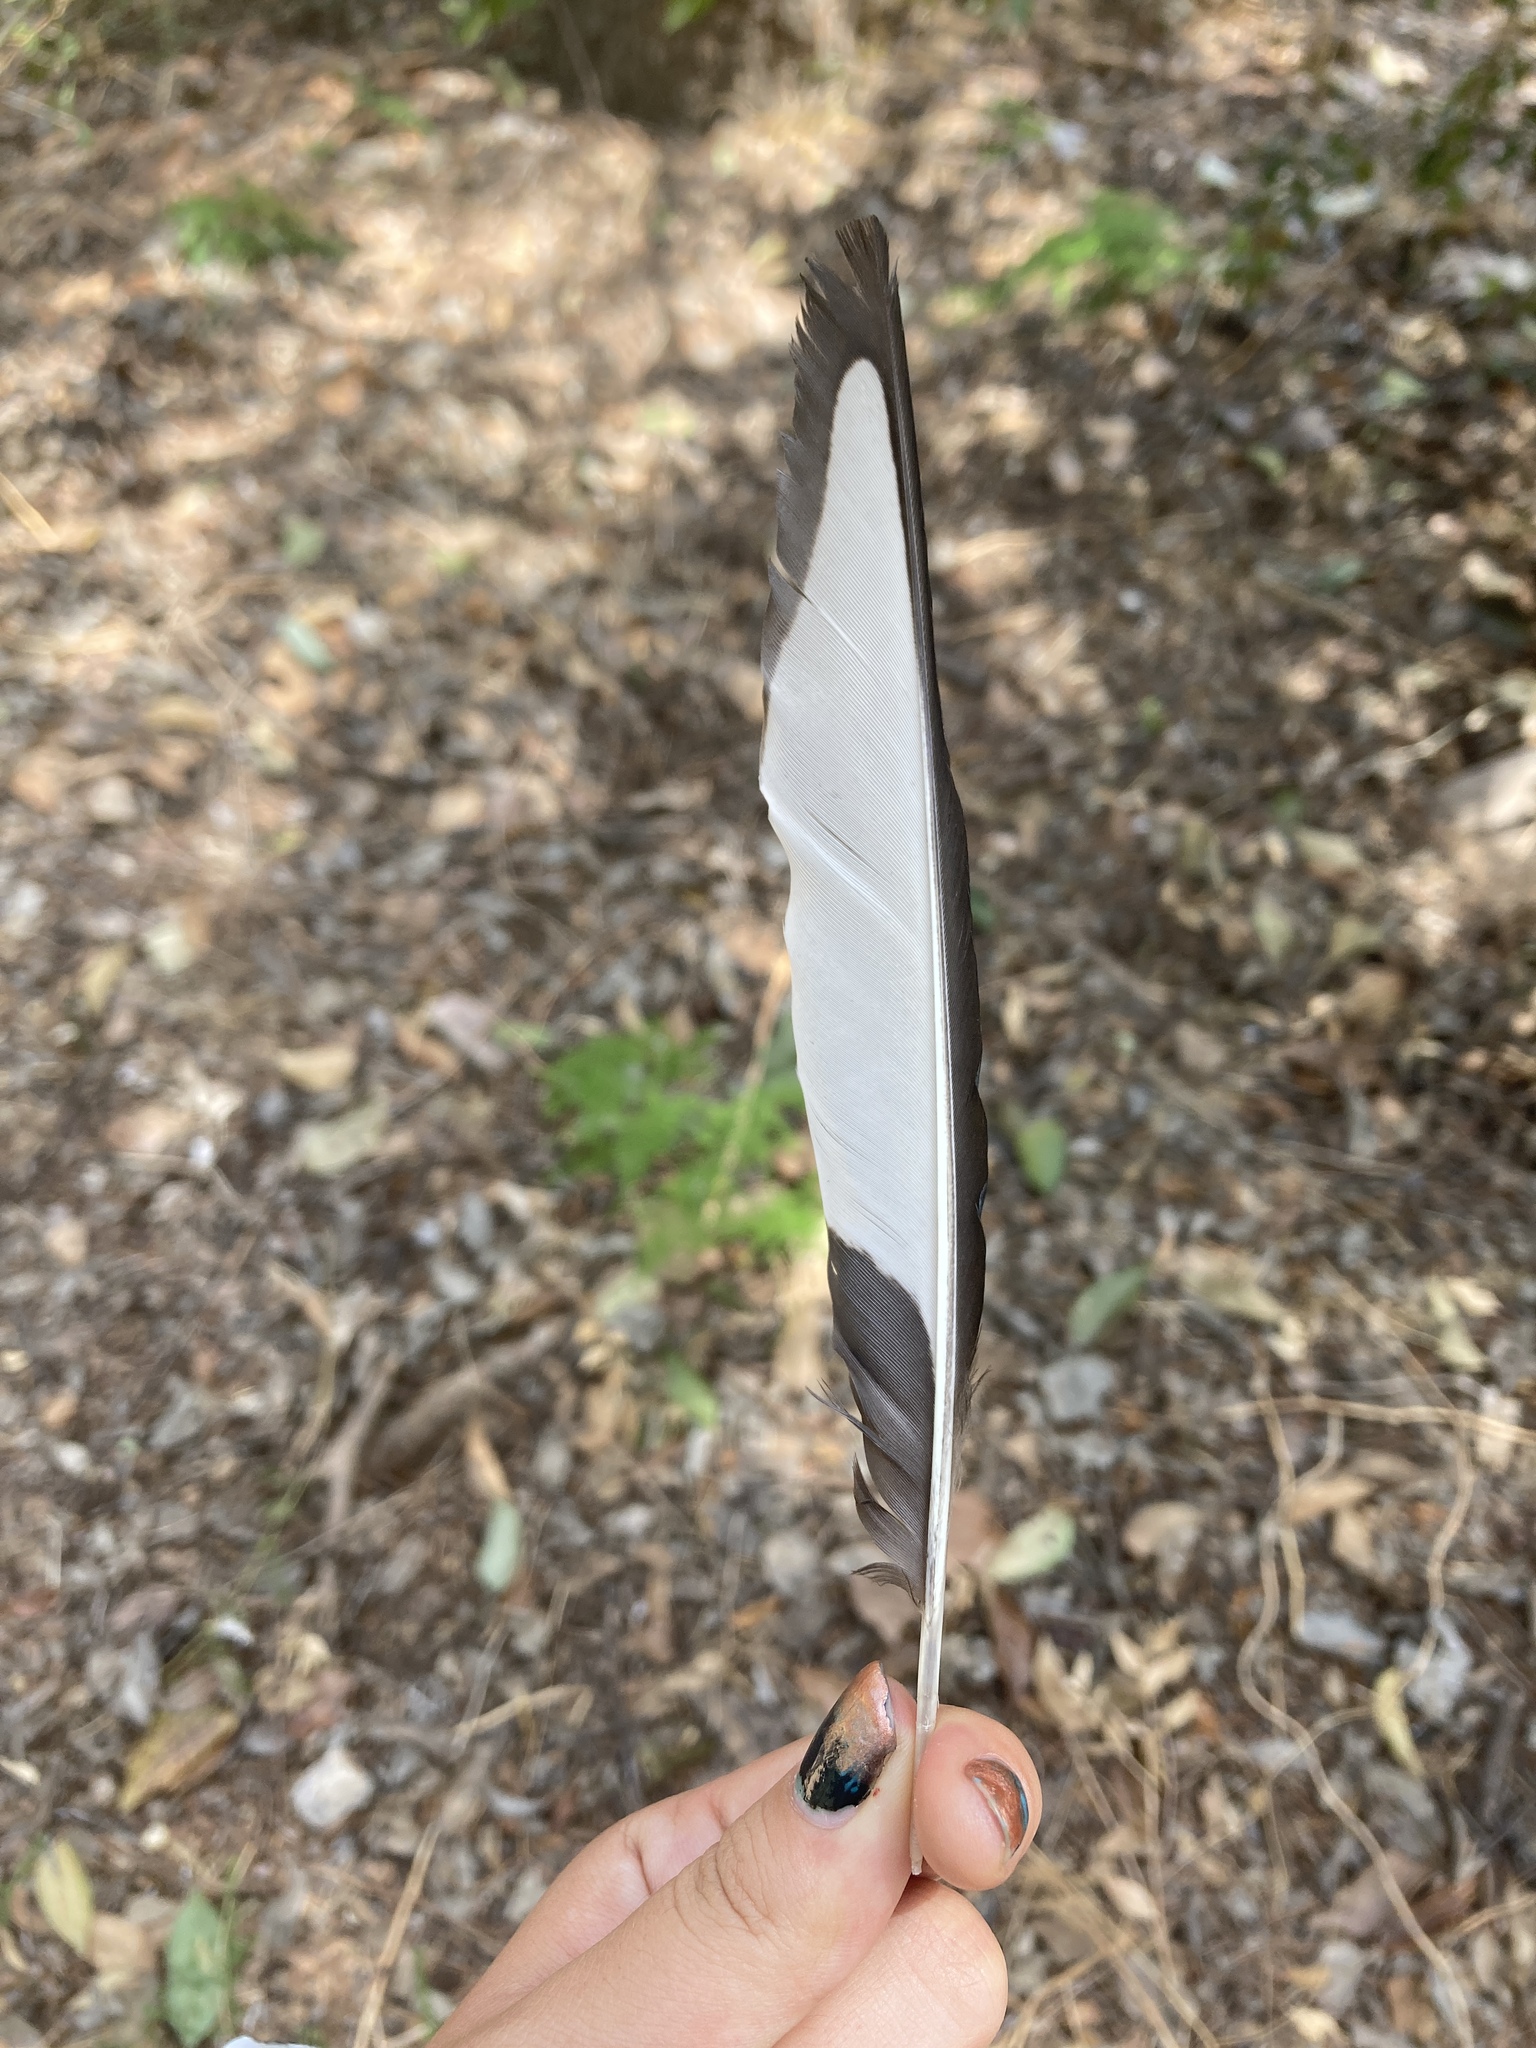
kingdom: Animalia
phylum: Chordata
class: Aves
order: Passeriformes
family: Corvidae
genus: Pica
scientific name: Pica pica
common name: Eurasian magpie
